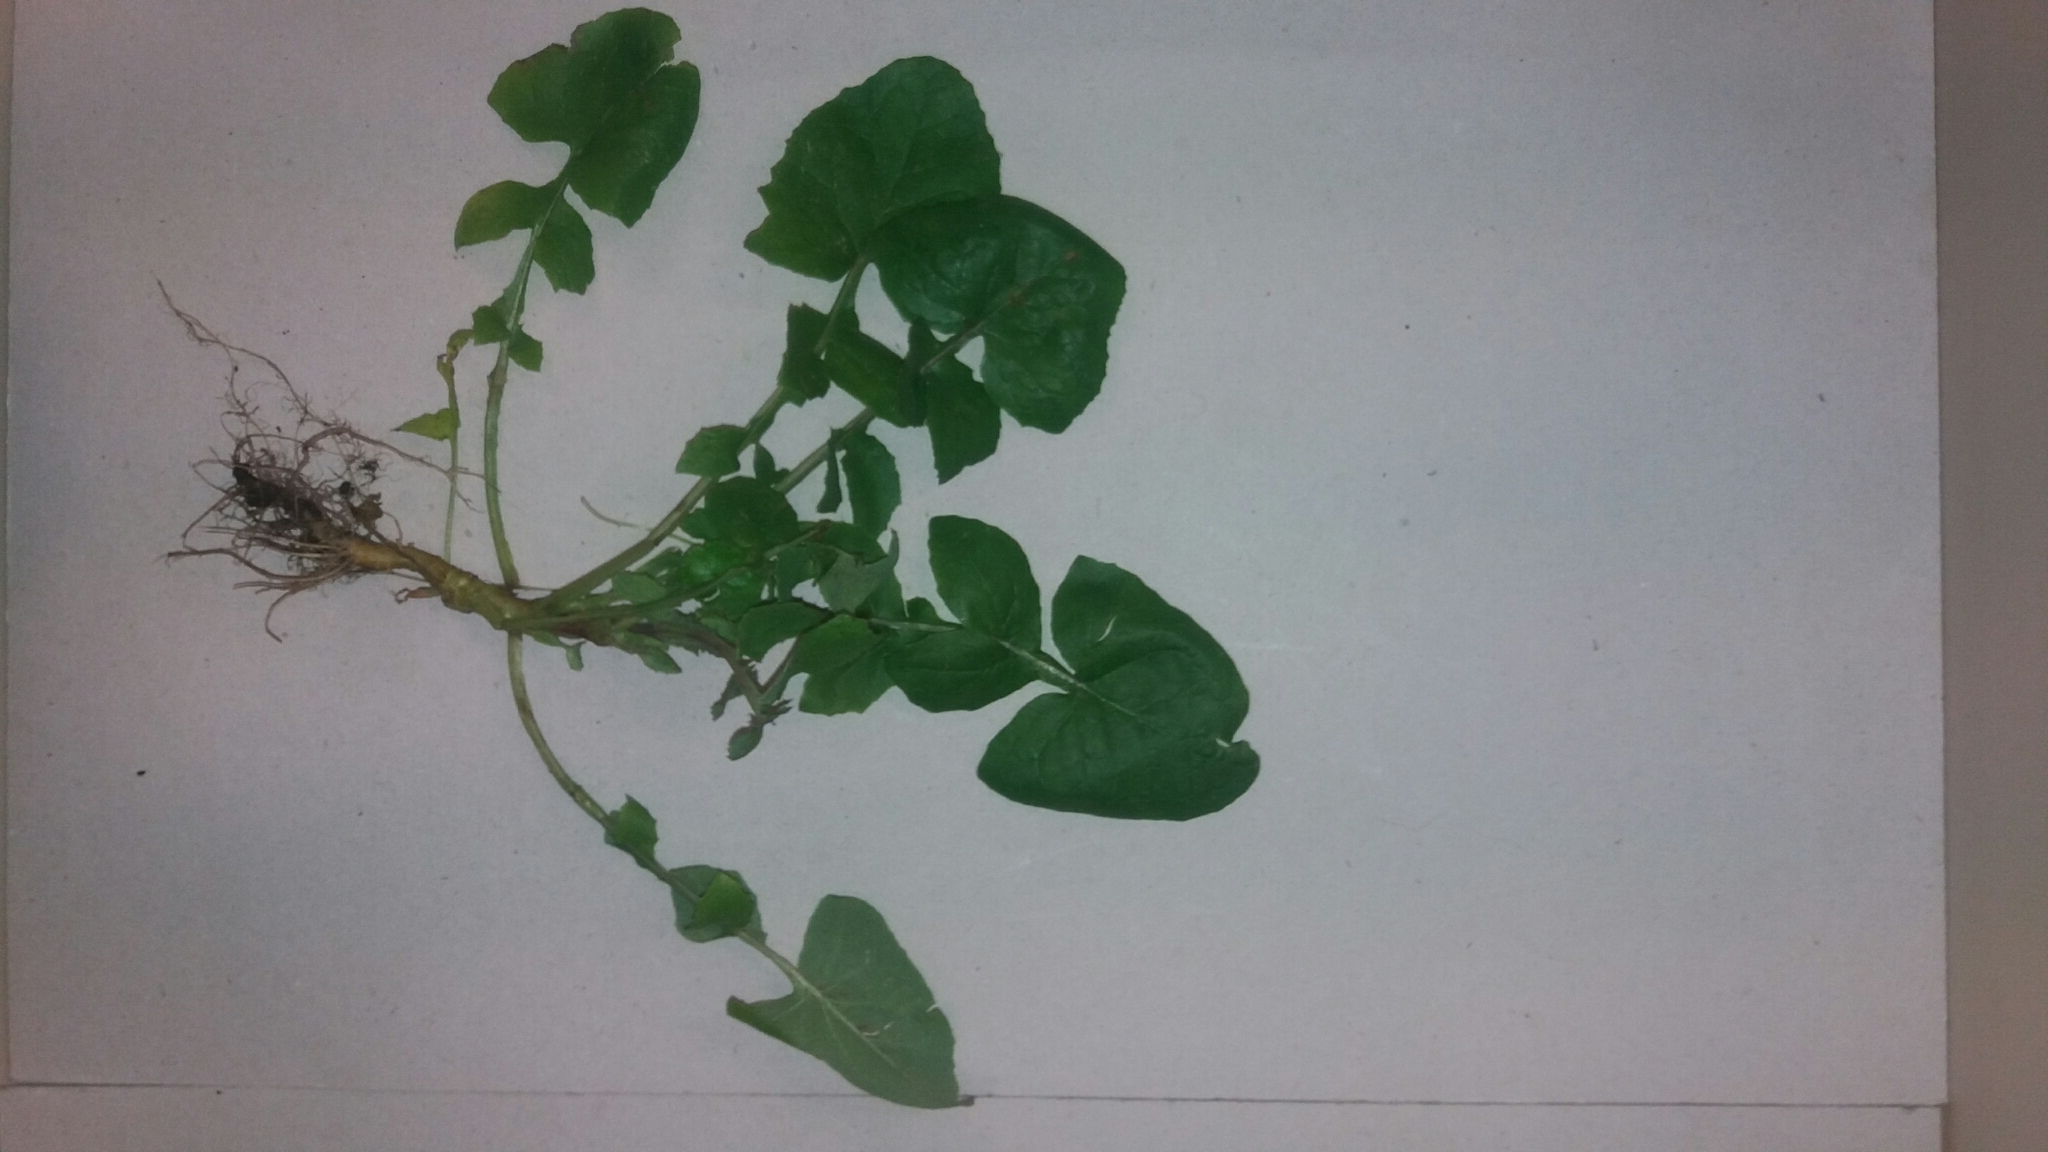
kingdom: Plantae
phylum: Tracheophyta
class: Magnoliopsida
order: Asterales
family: Asteraceae
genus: Sonchus
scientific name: Sonchus oleraceus
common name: Common sowthistle
